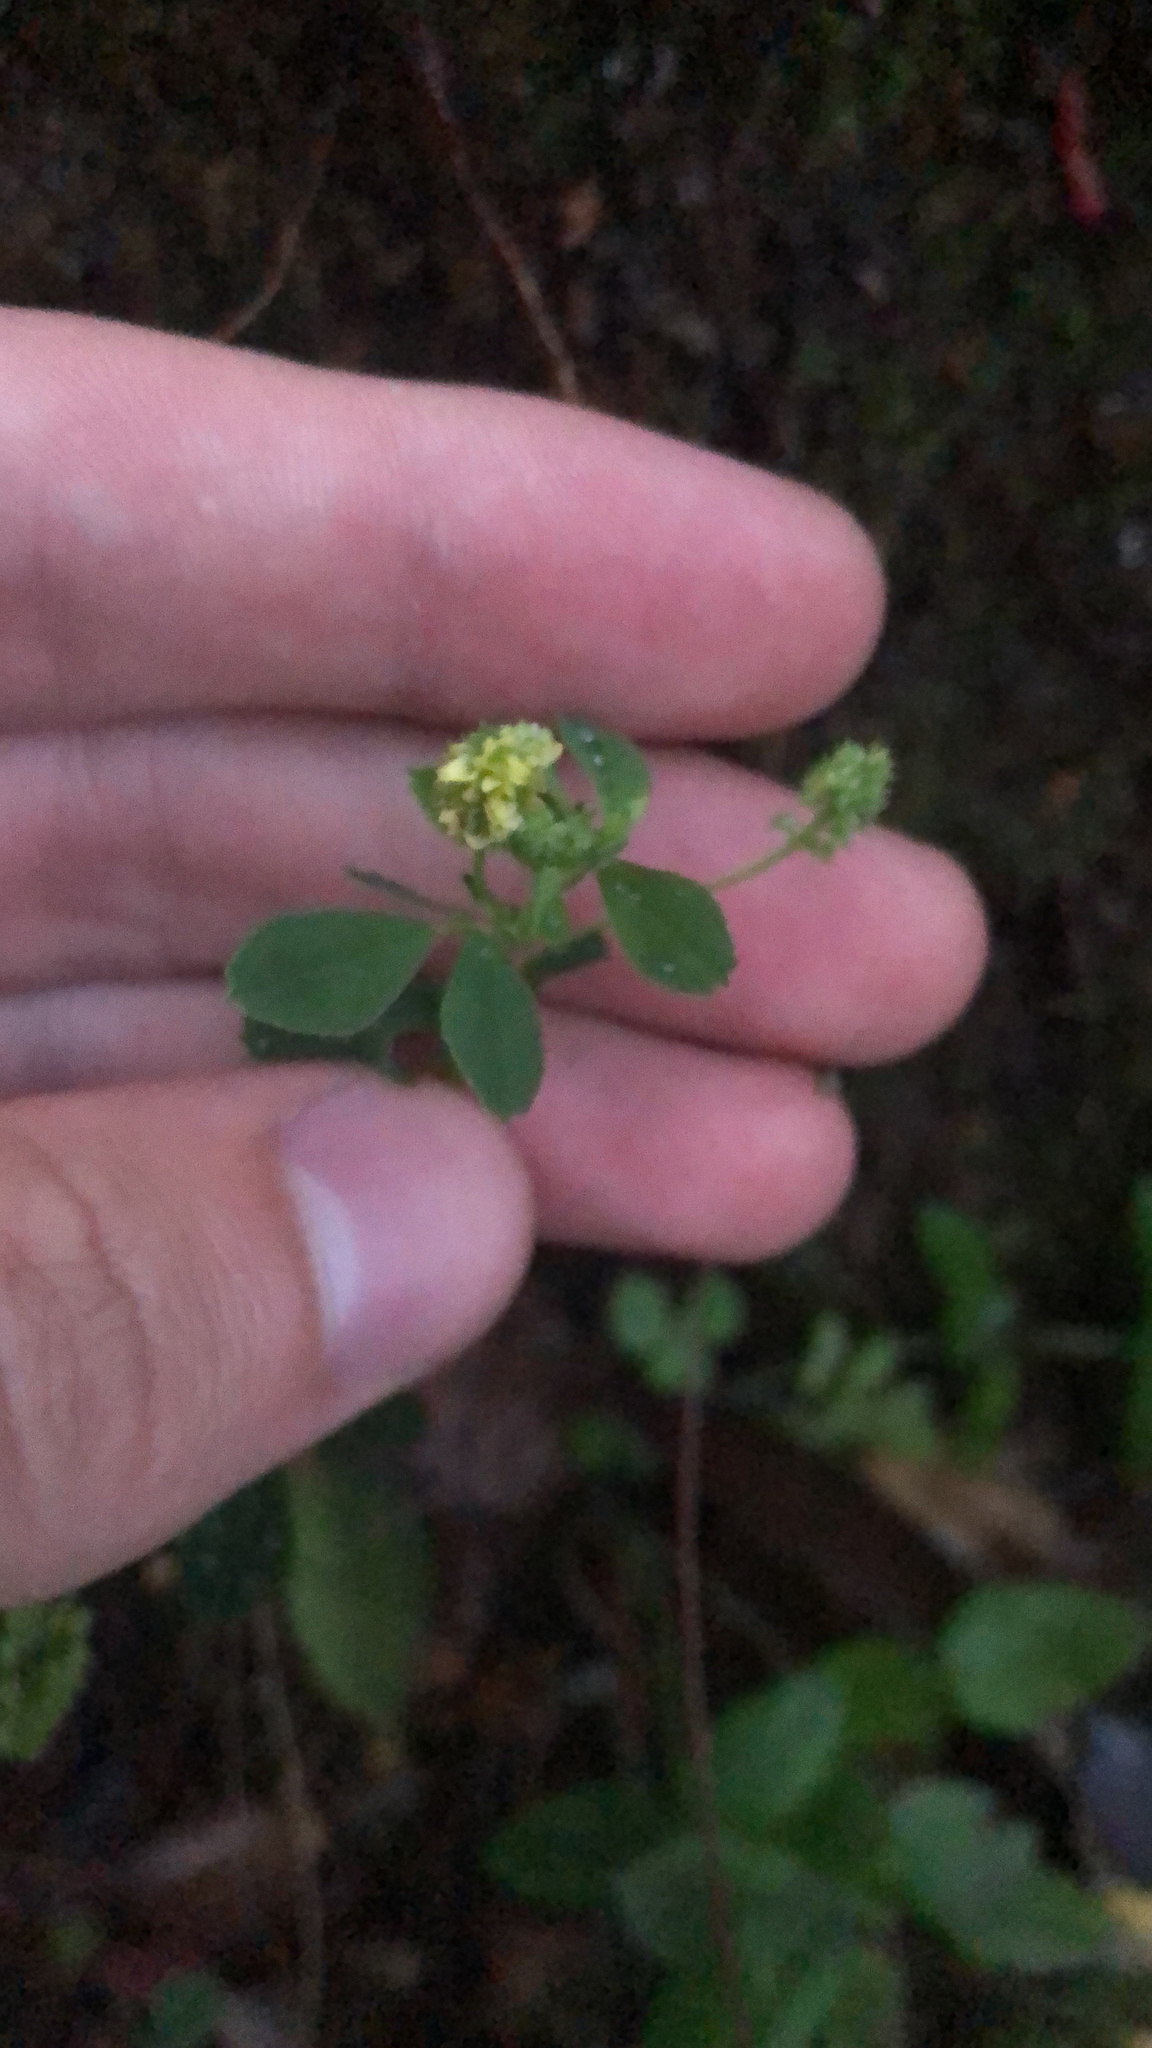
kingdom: Plantae
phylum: Tracheophyta
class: Magnoliopsida
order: Fabales
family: Fabaceae
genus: Medicago
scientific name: Medicago lupulina
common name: Black medick
